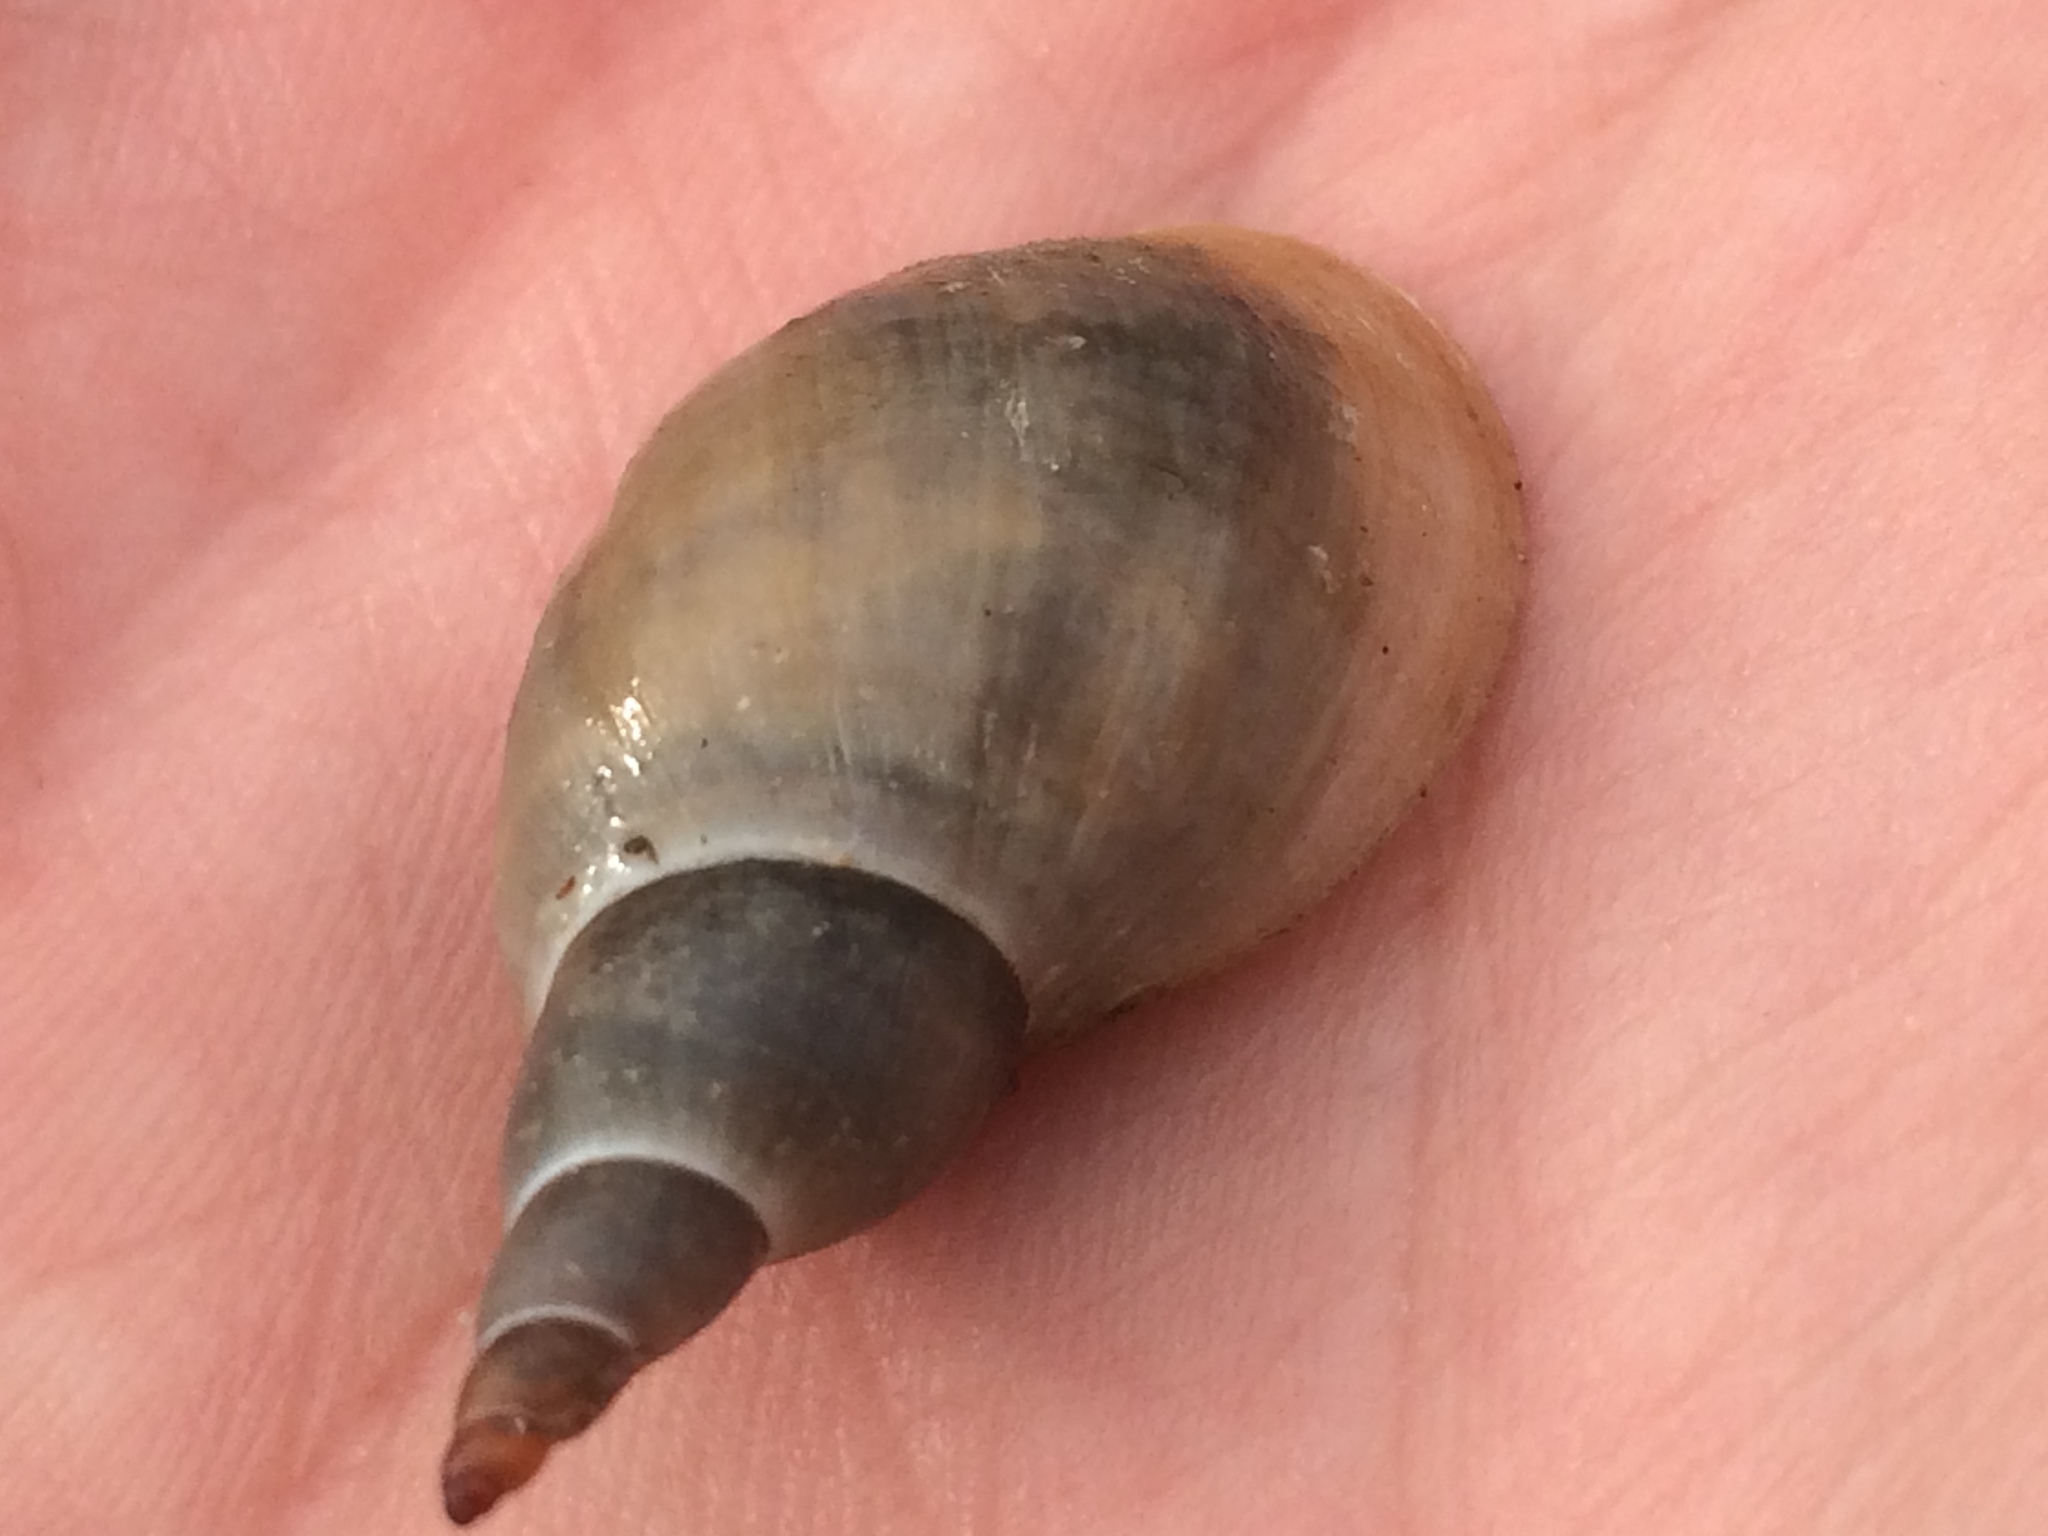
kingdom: Animalia
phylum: Mollusca
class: Gastropoda
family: Lymnaeidae
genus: Lymnaea
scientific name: Lymnaea stagnalis
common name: Great pond snail
